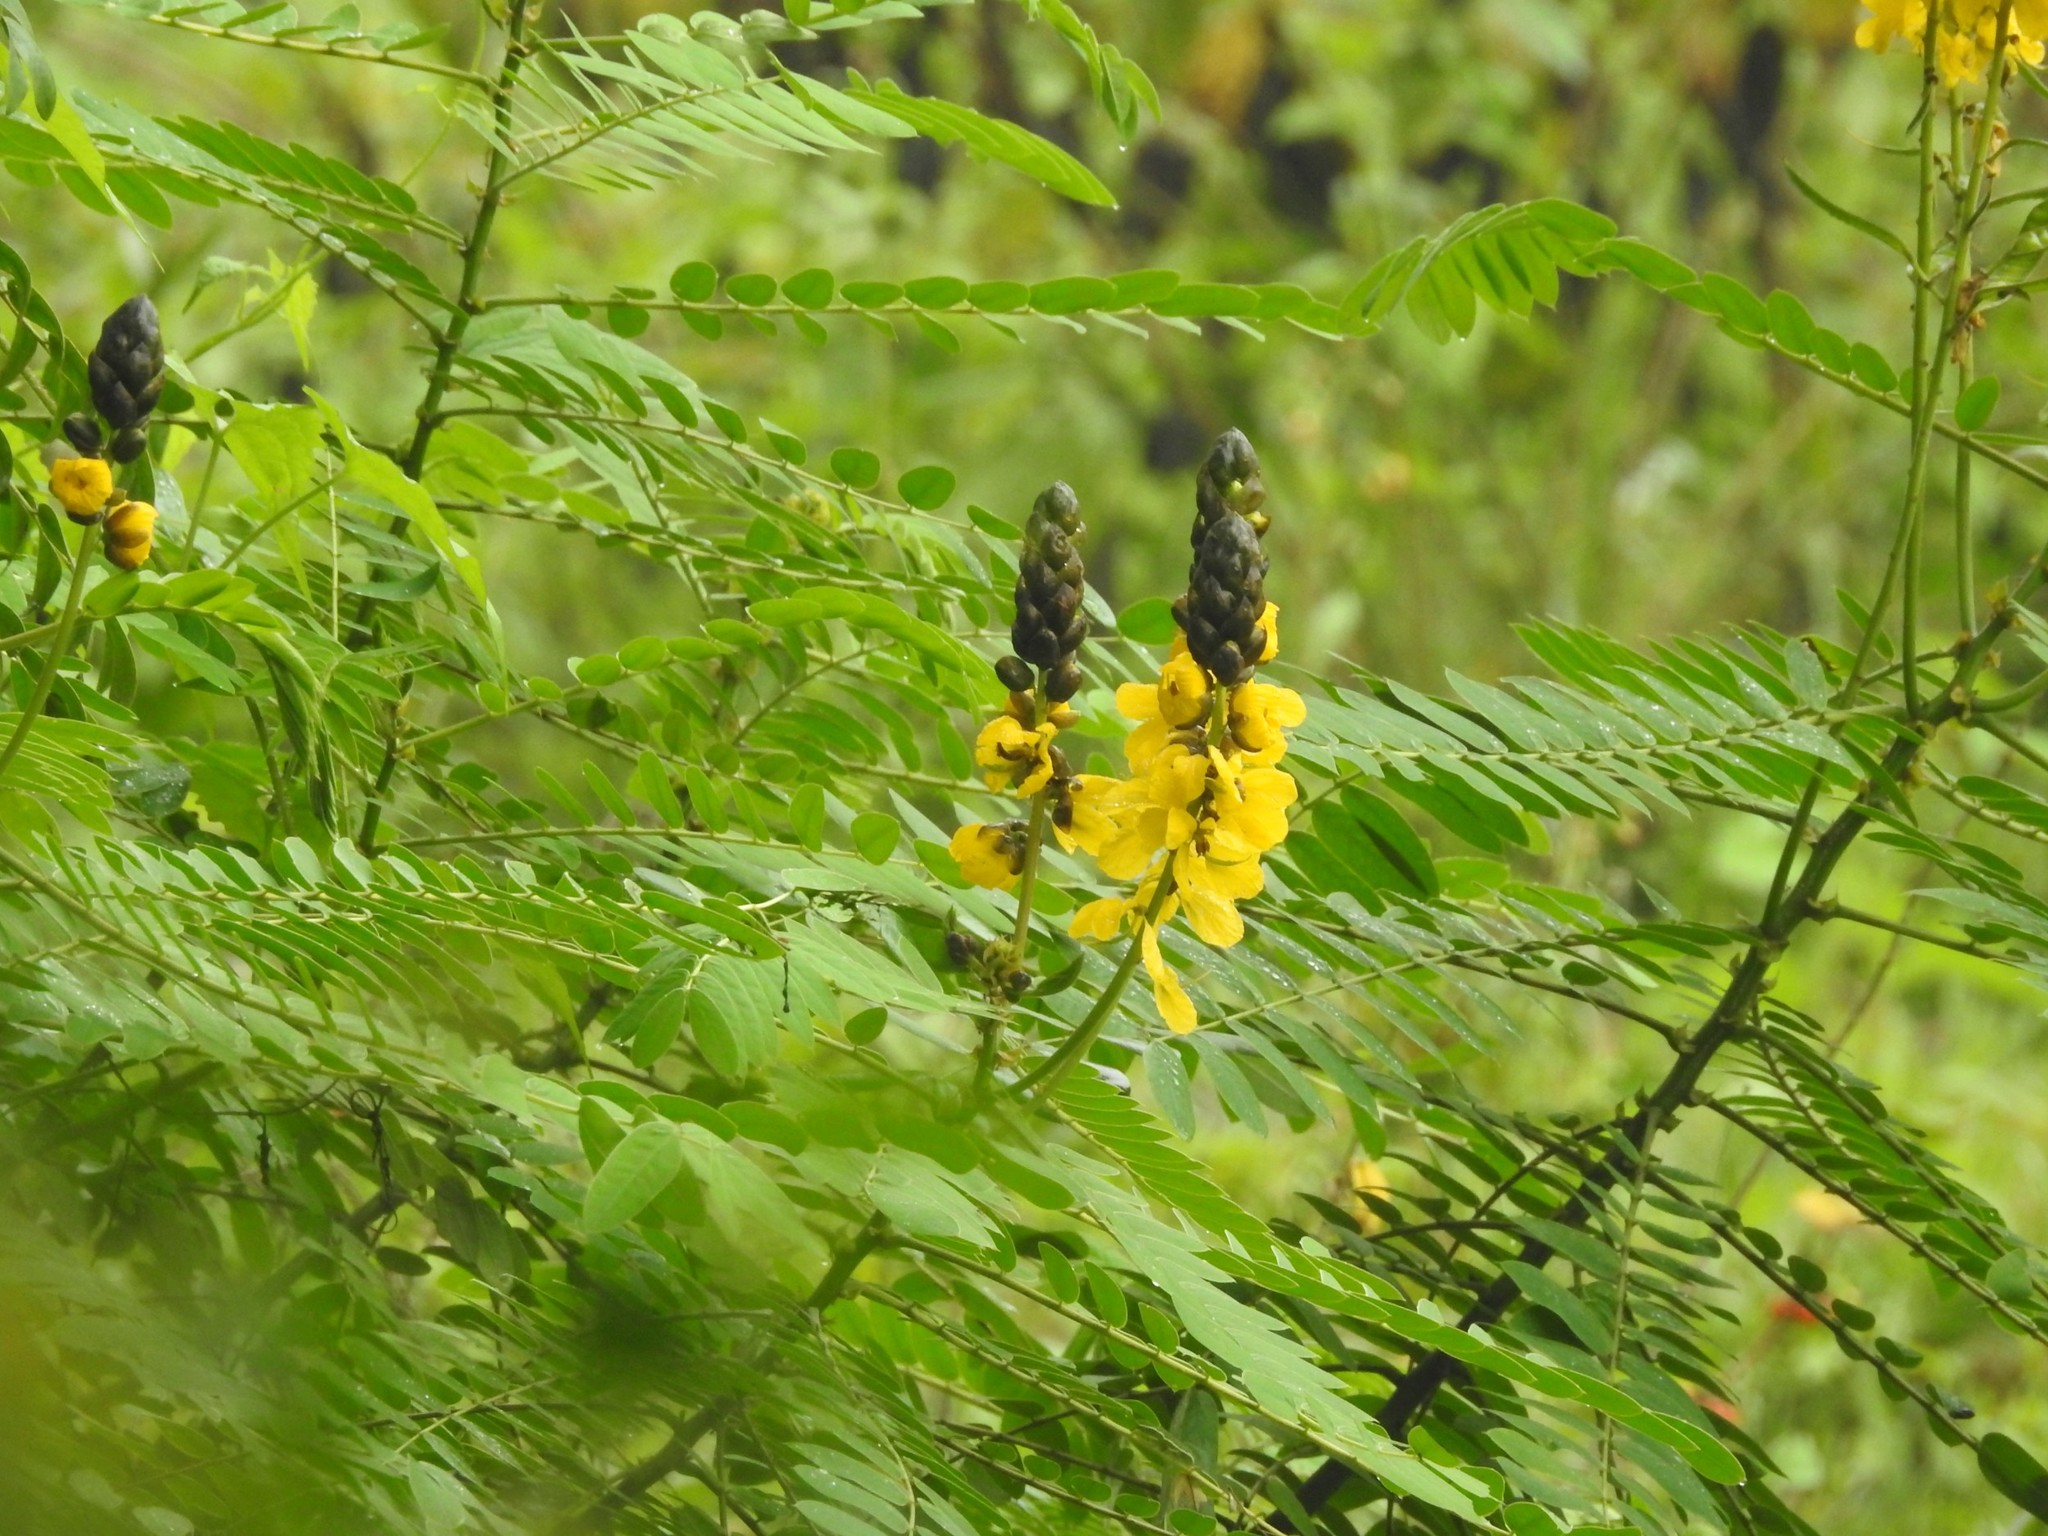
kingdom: Plantae
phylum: Tracheophyta
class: Magnoliopsida
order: Fabales
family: Fabaceae
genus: Senna
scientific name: Senna didymobotrya
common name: African senna
